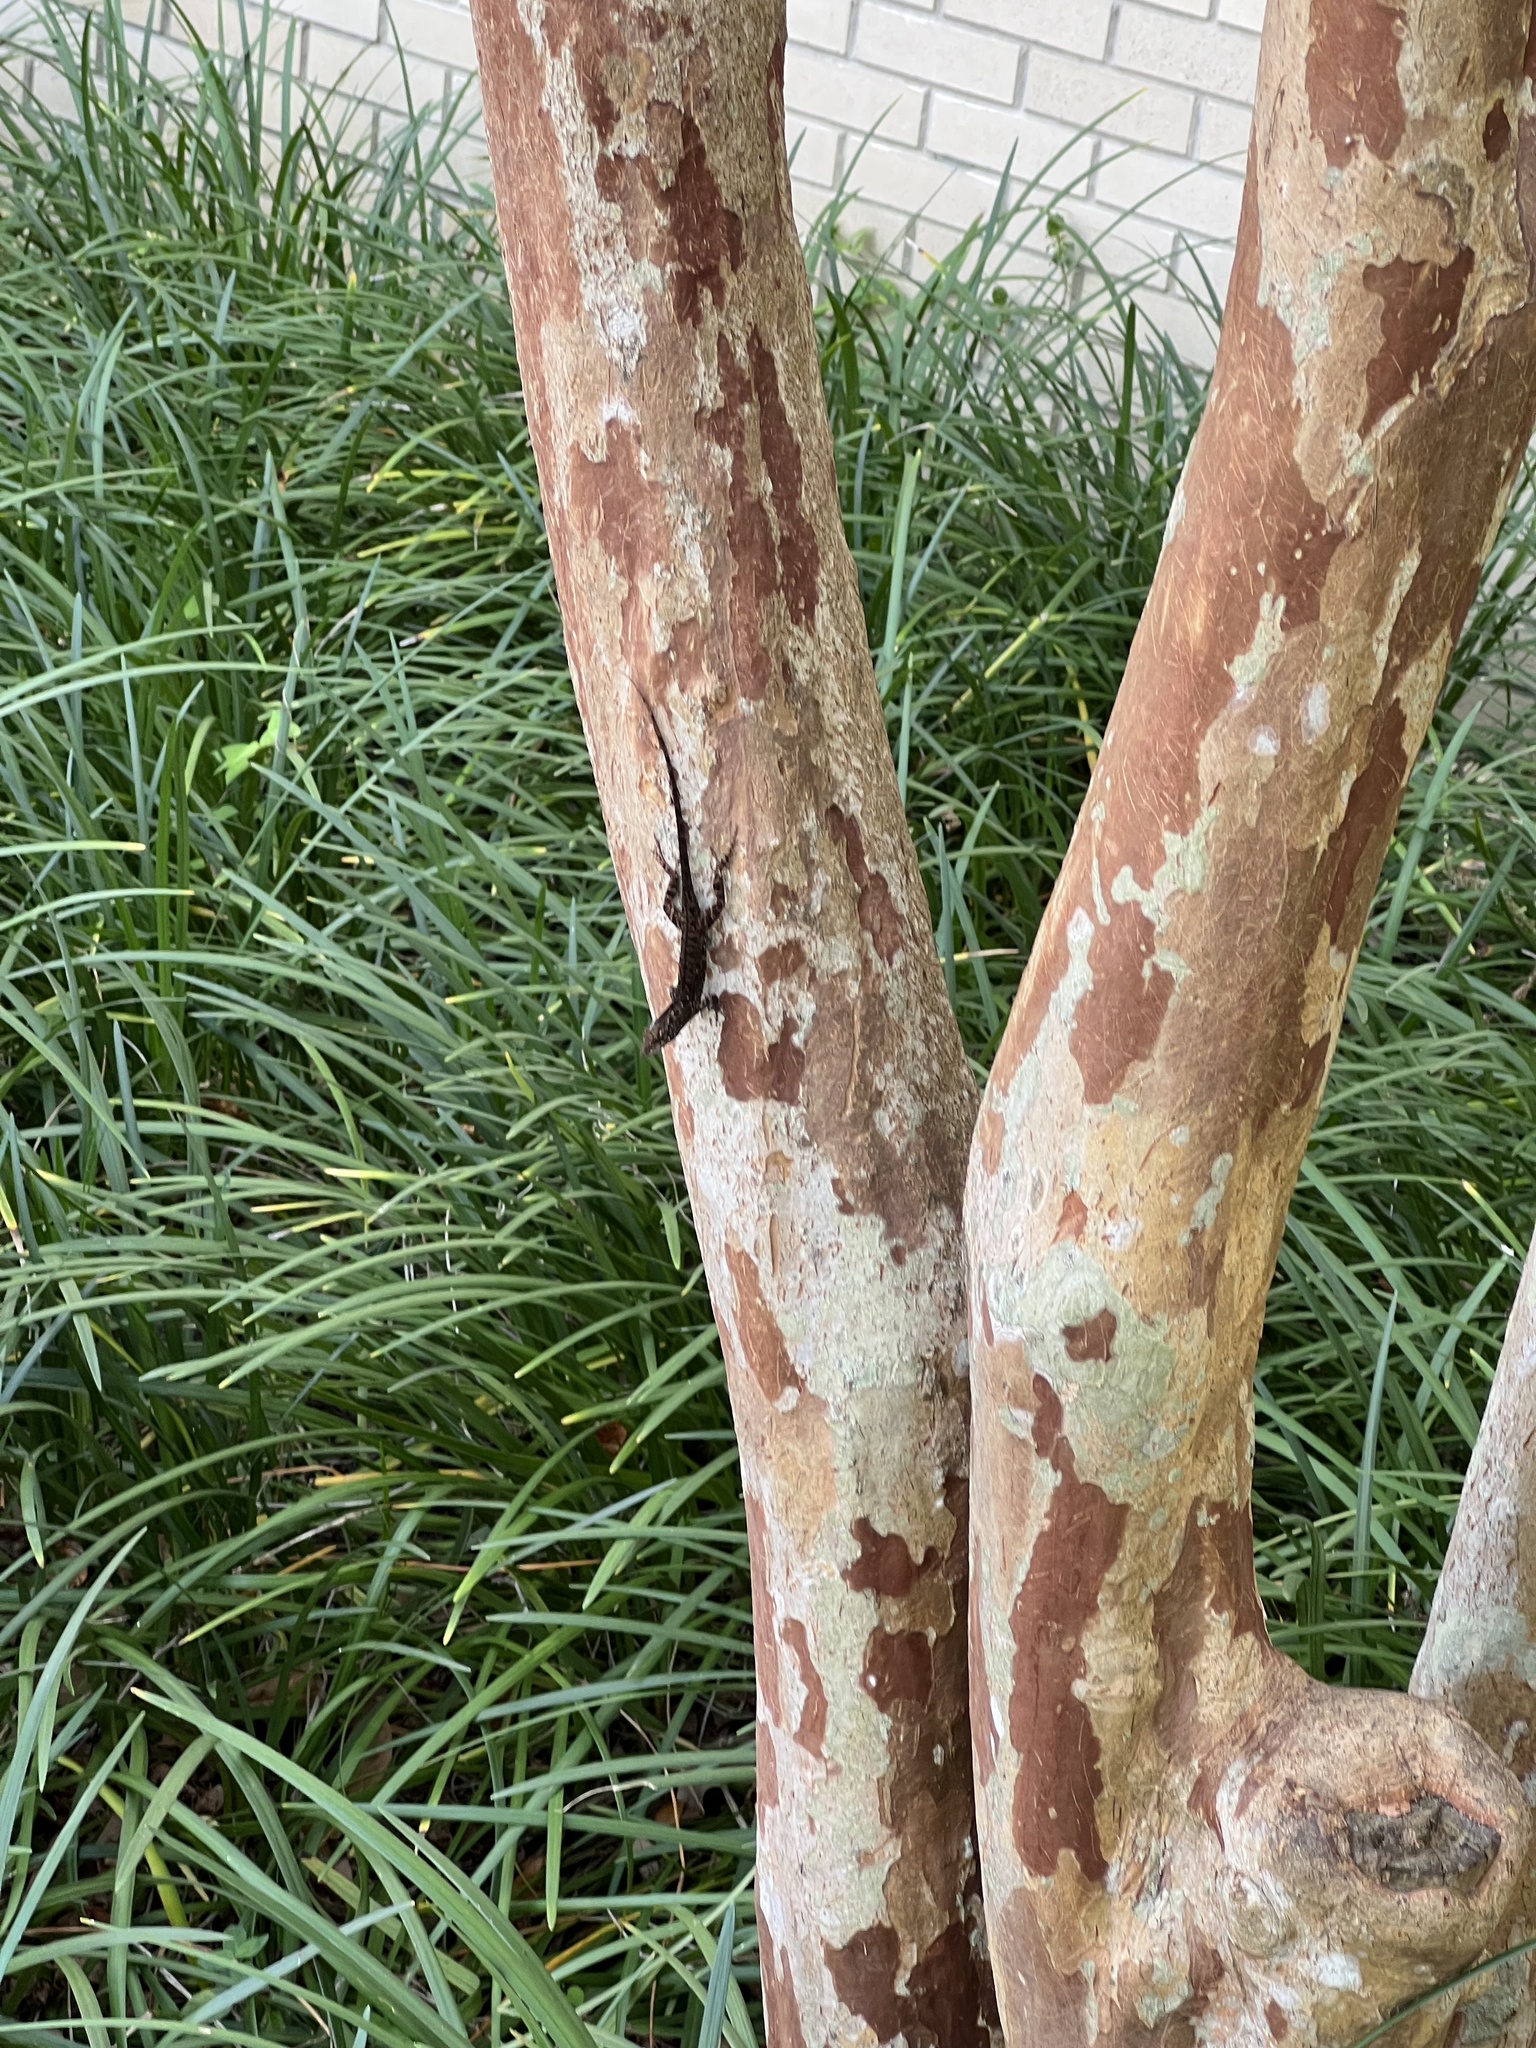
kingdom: Animalia
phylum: Chordata
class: Squamata
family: Dactyloidae
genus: Anolis
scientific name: Anolis sagrei
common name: Brown anole
